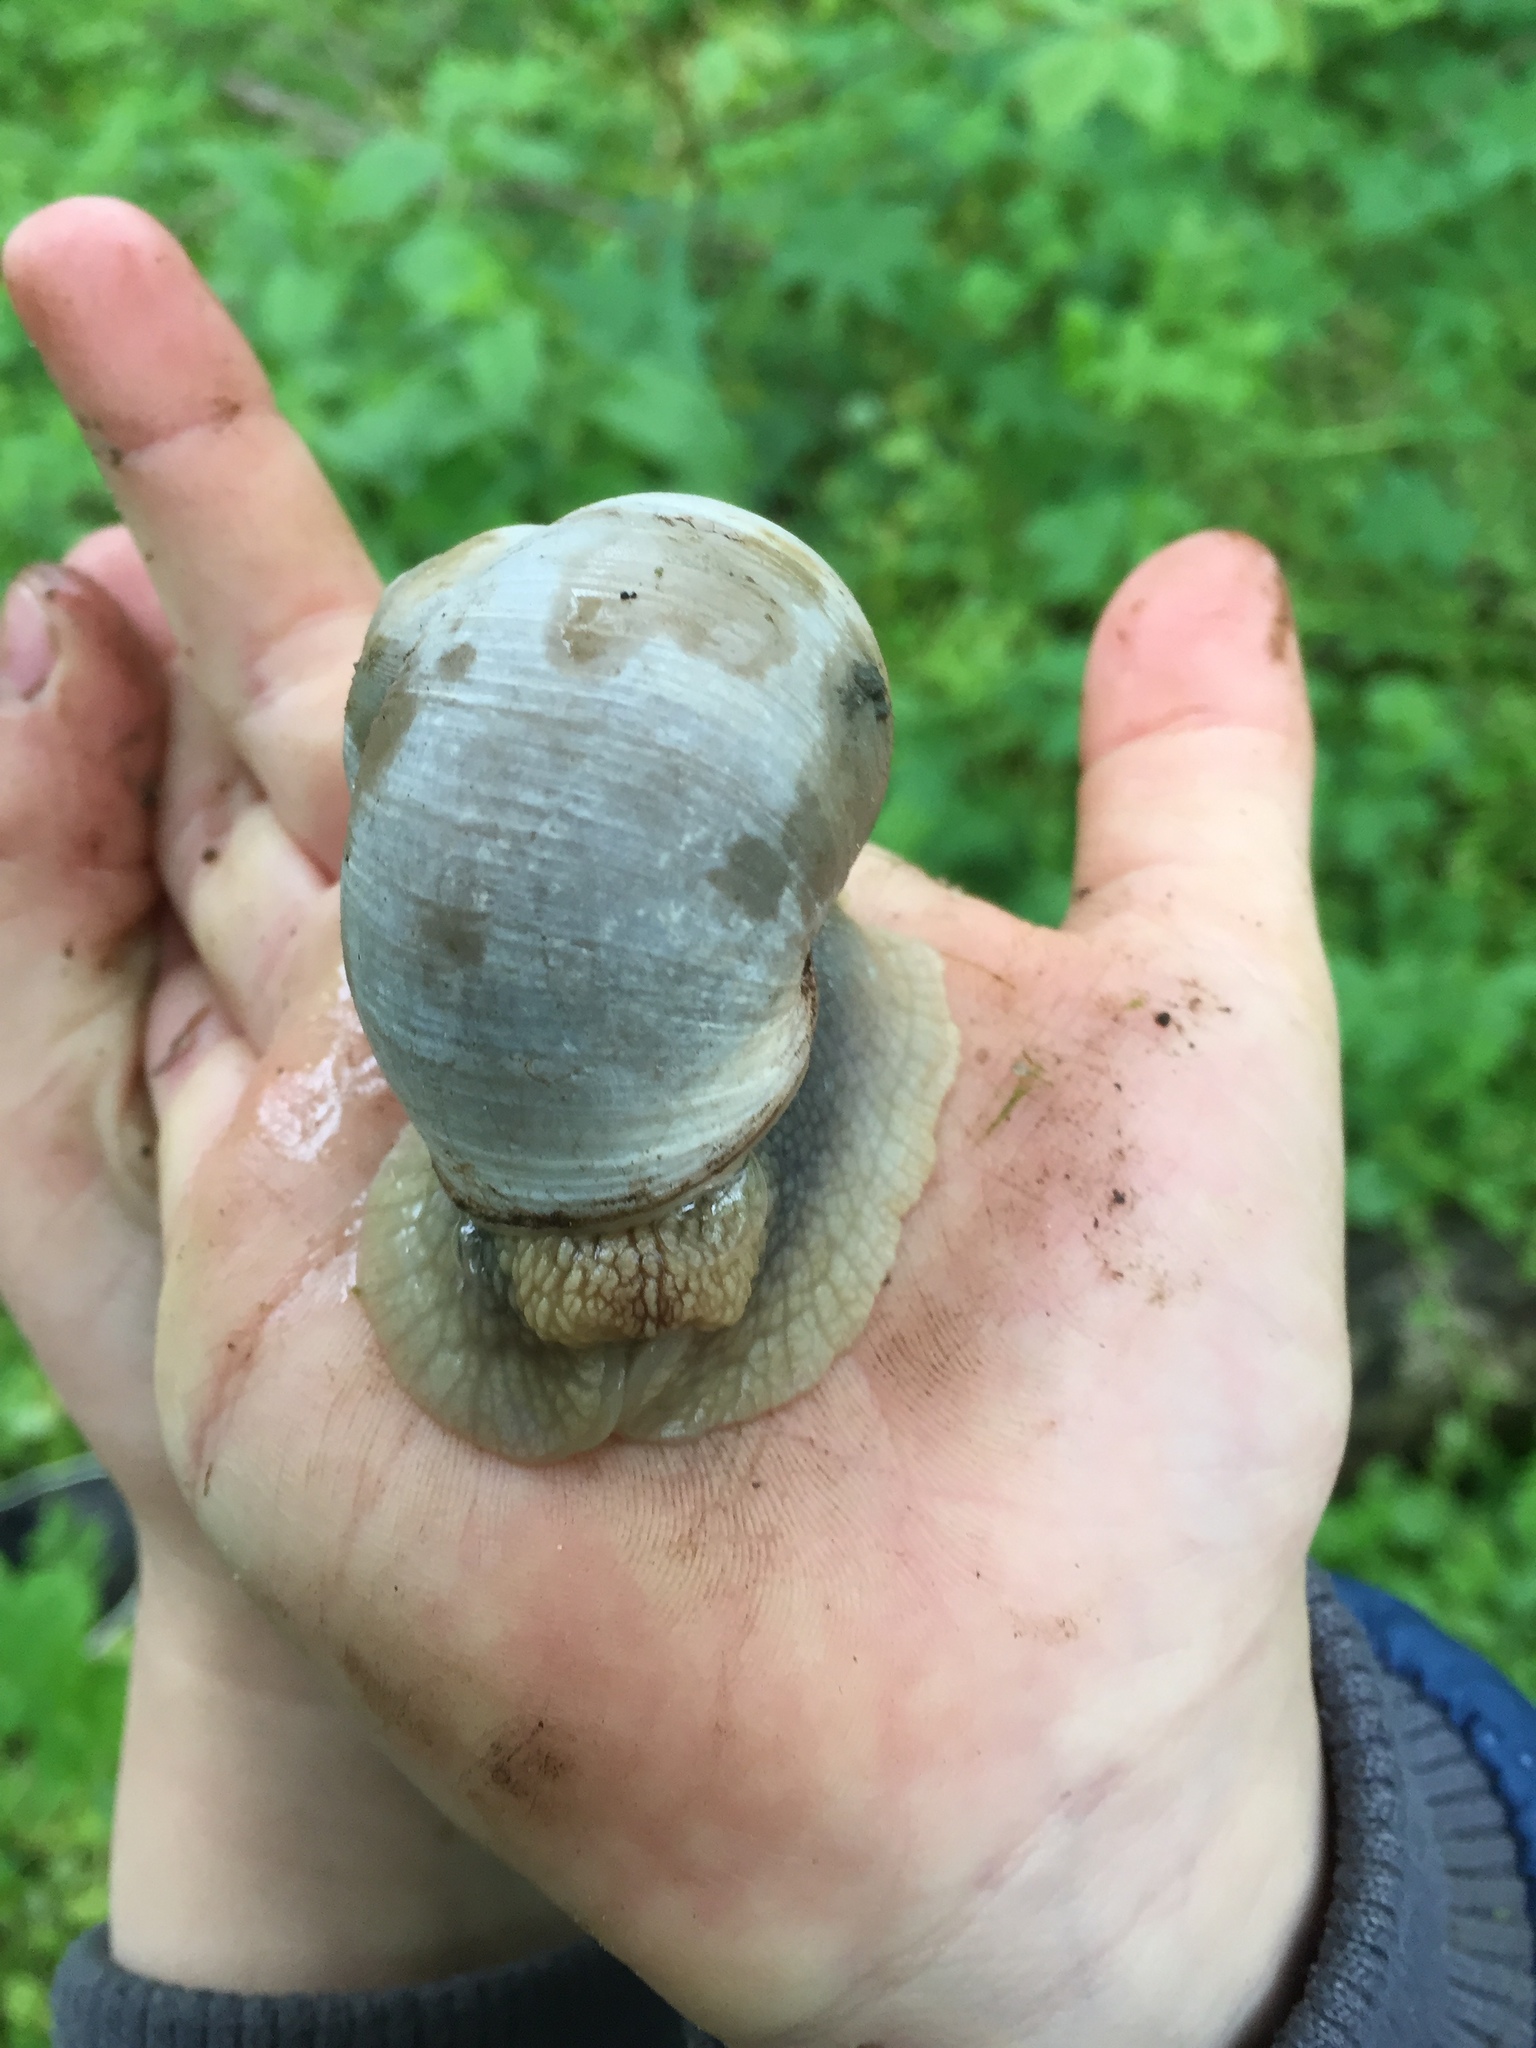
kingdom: Animalia
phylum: Mollusca
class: Gastropoda
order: Stylommatophora
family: Helicidae
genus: Helix
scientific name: Helix pomatia
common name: Roman snail
